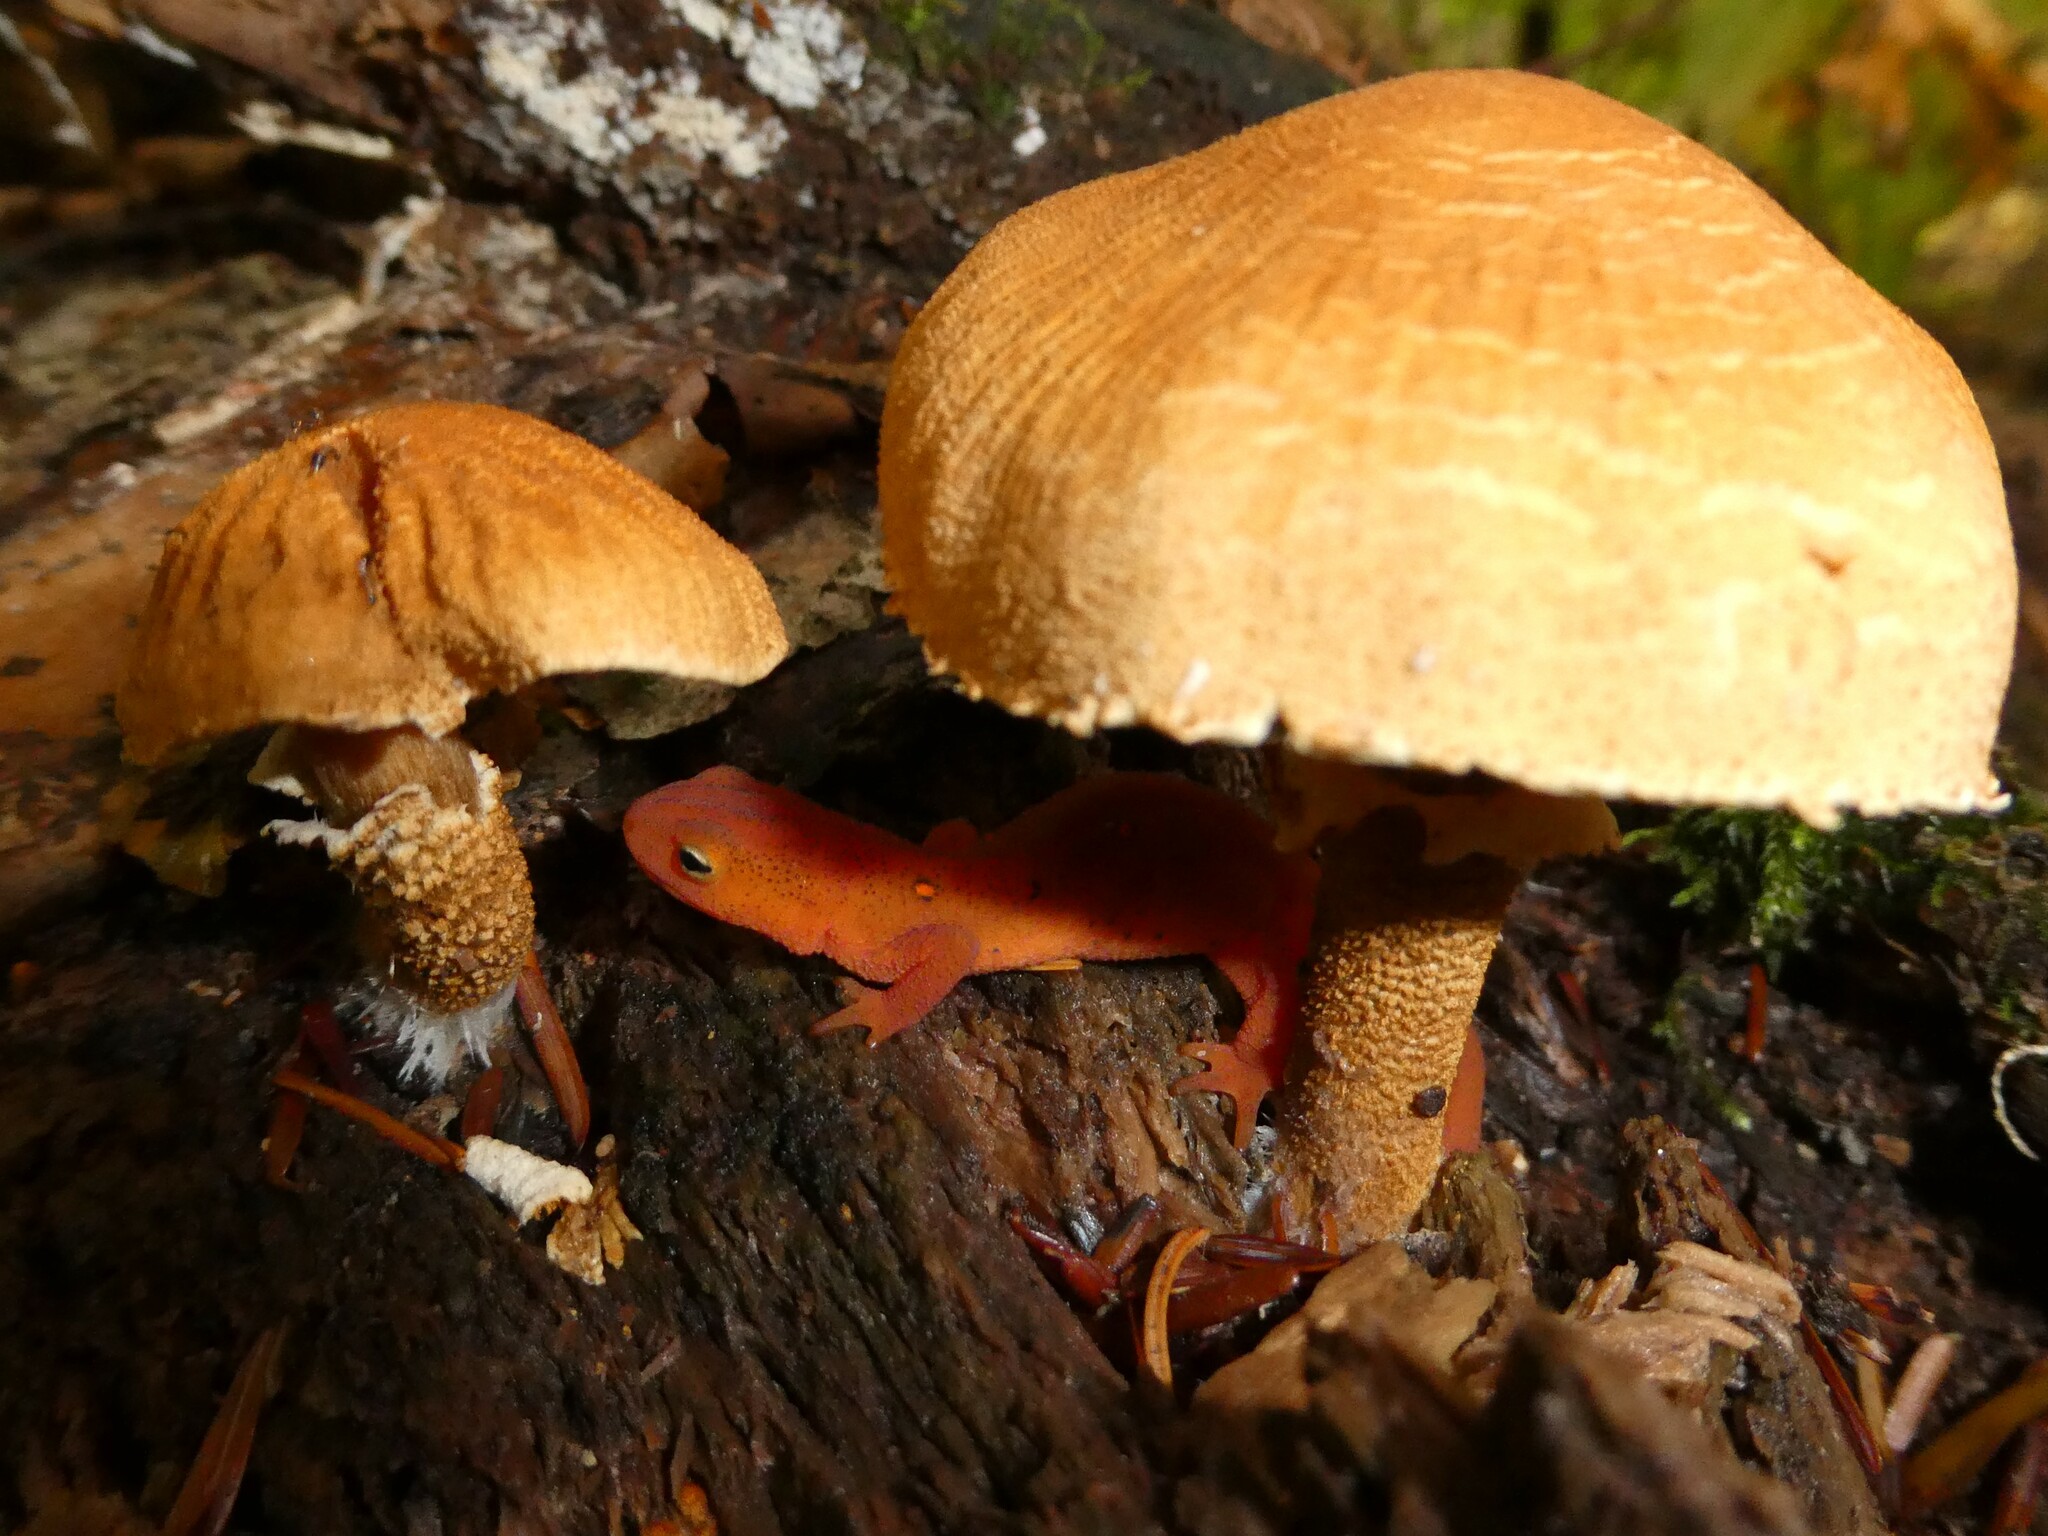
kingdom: Animalia
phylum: Chordata
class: Amphibia
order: Caudata
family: Salamandridae
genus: Notophthalmus
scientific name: Notophthalmus viridescens
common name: Eastern newt
